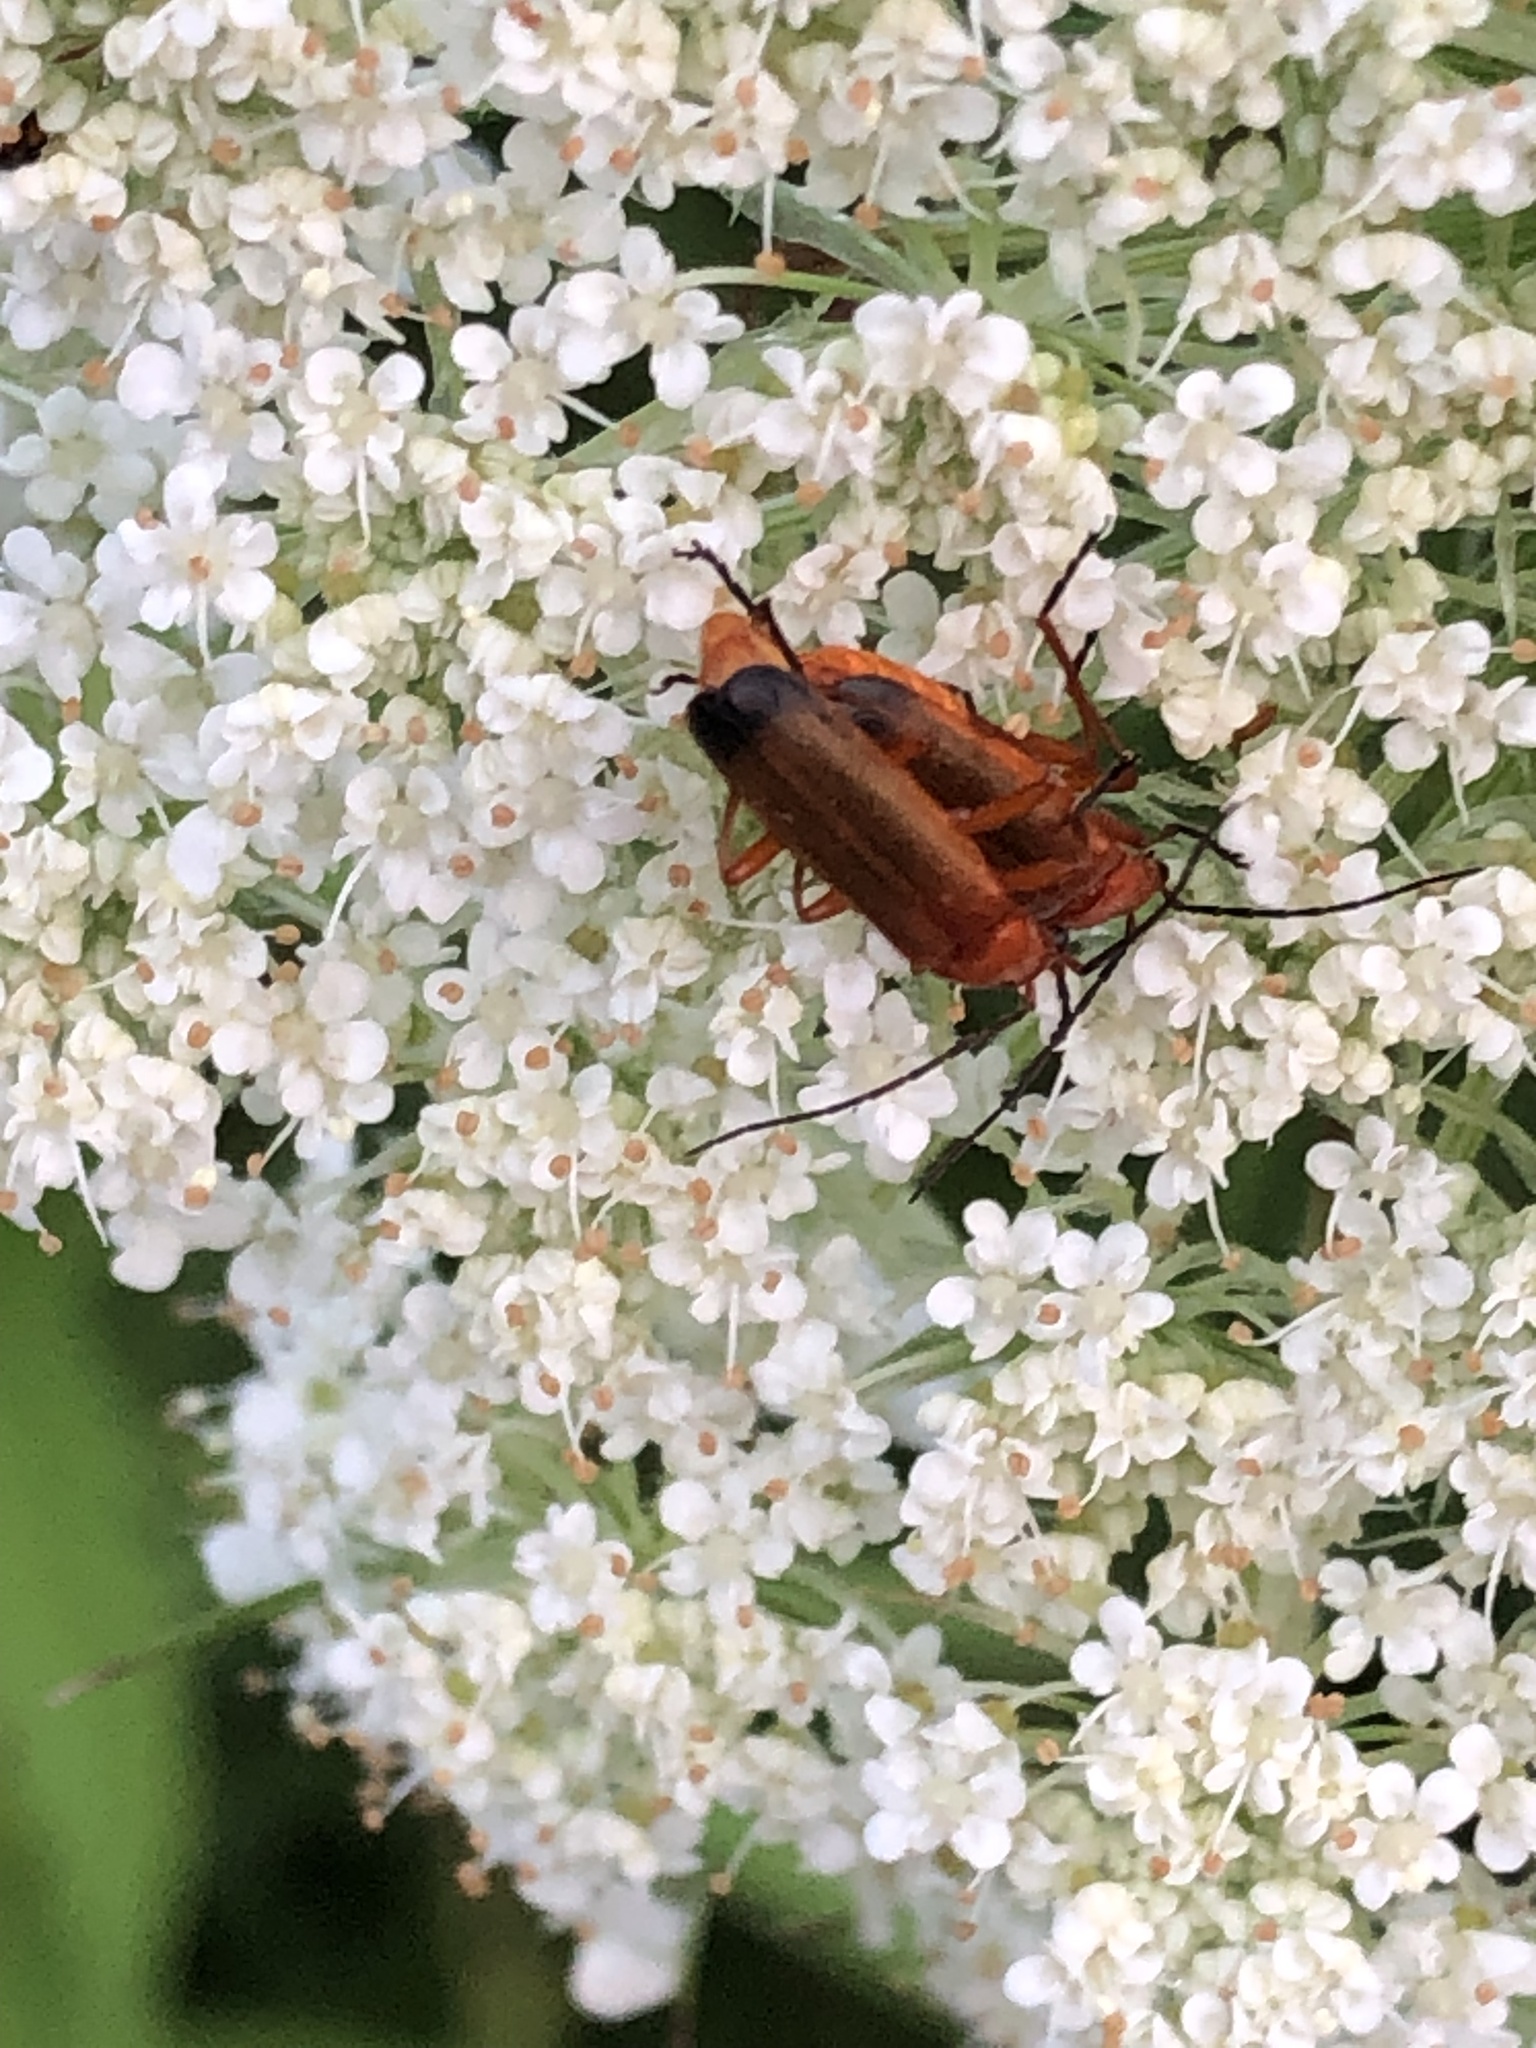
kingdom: Animalia
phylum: Arthropoda
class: Insecta
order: Coleoptera
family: Cantharidae
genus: Rhagonycha
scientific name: Rhagonycha fulva
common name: Common red soldier beetle
